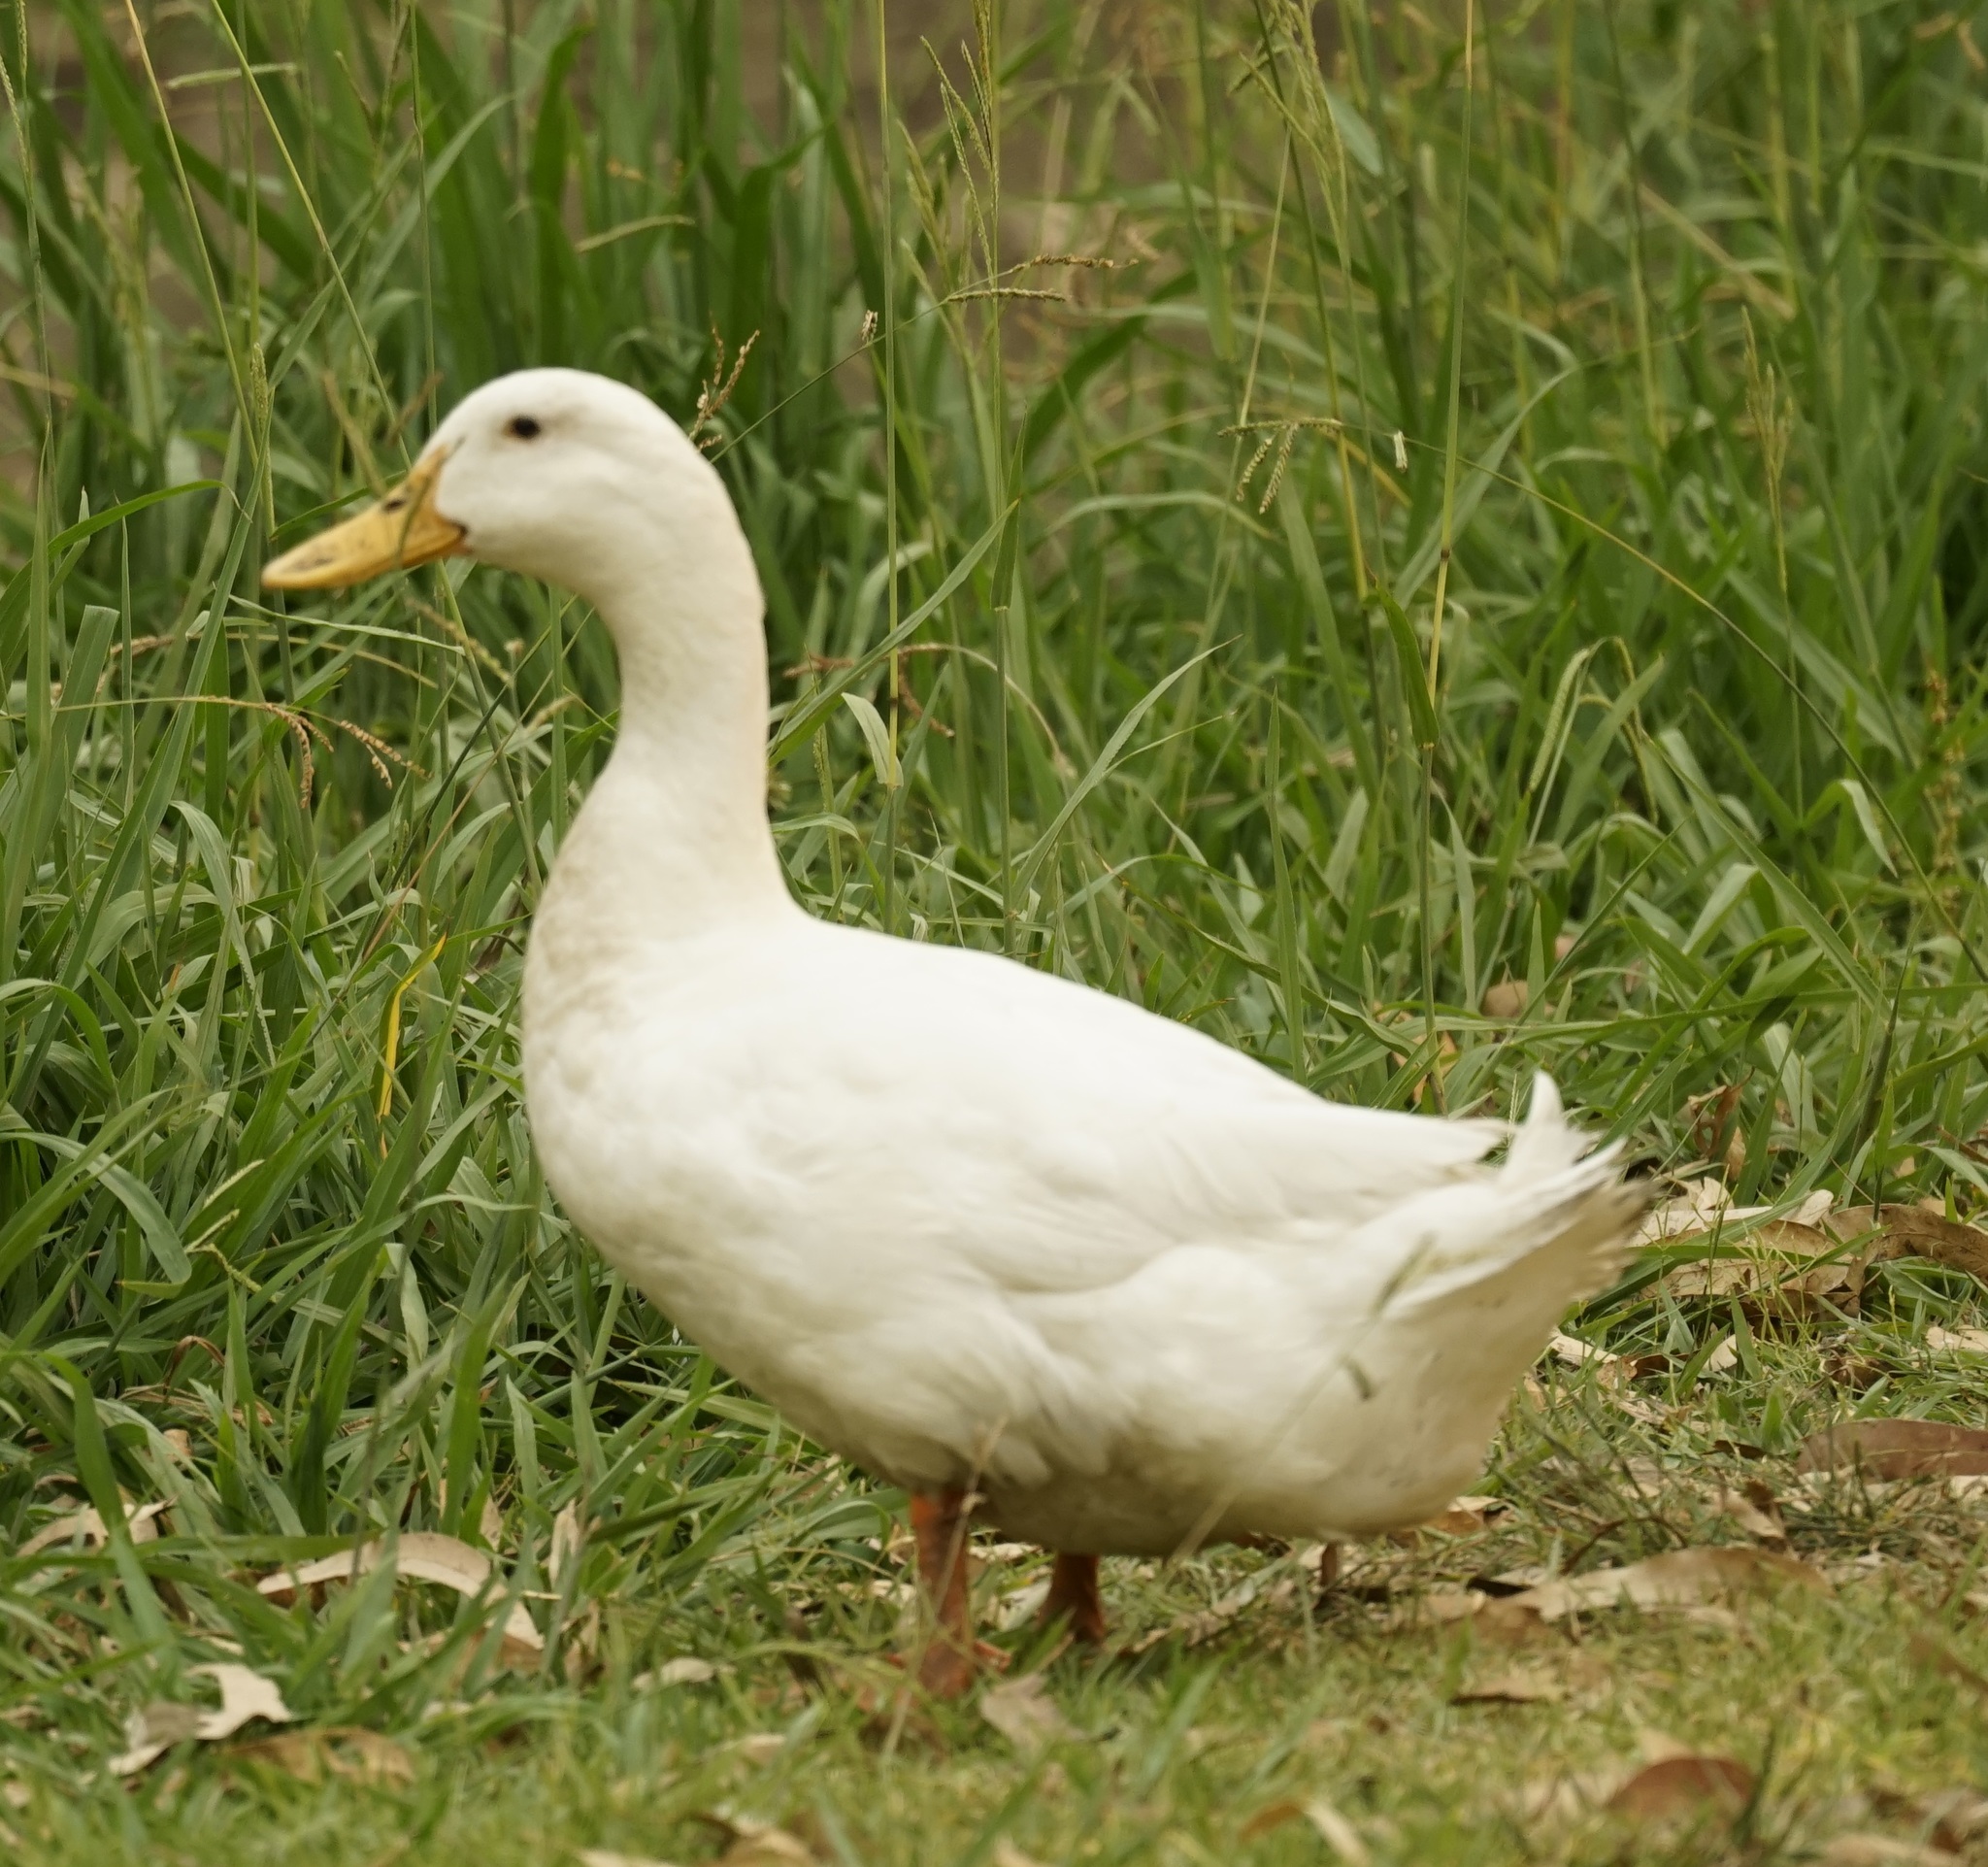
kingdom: Animalia
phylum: Chordata
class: Aves
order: Anseriformes
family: Anatidae
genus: Anas
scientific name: Anas platyrhynchos
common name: Mallard
